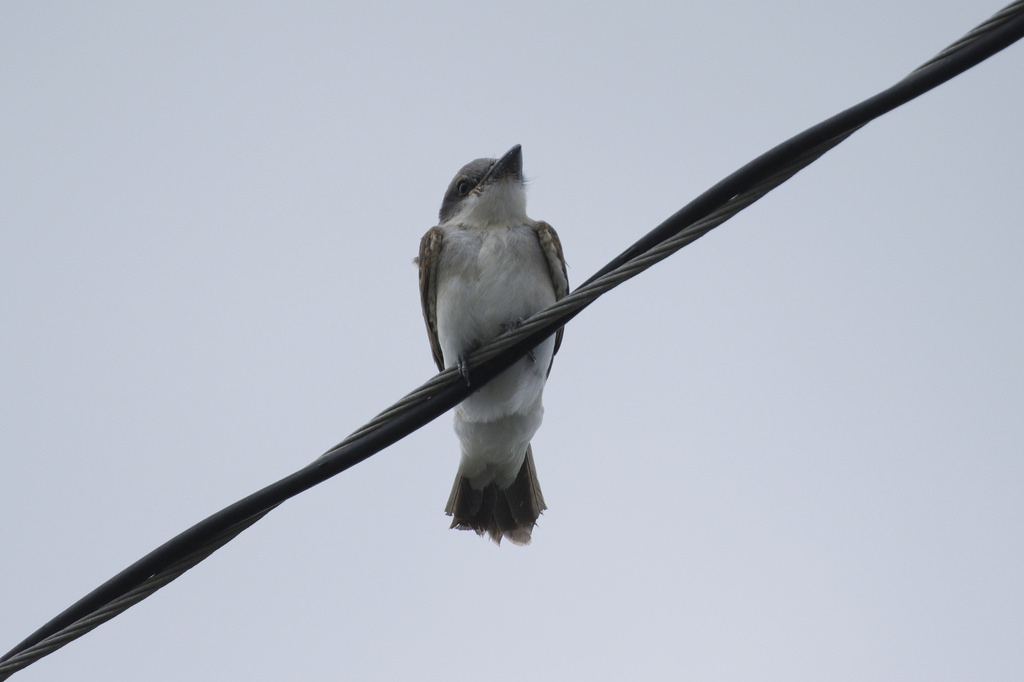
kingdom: Animalia
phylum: Chordata
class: Aves
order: Passeriformes
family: Tyrannidae
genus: Tyrannus
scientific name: Tyrannus dominicensis
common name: Gray kingbird
